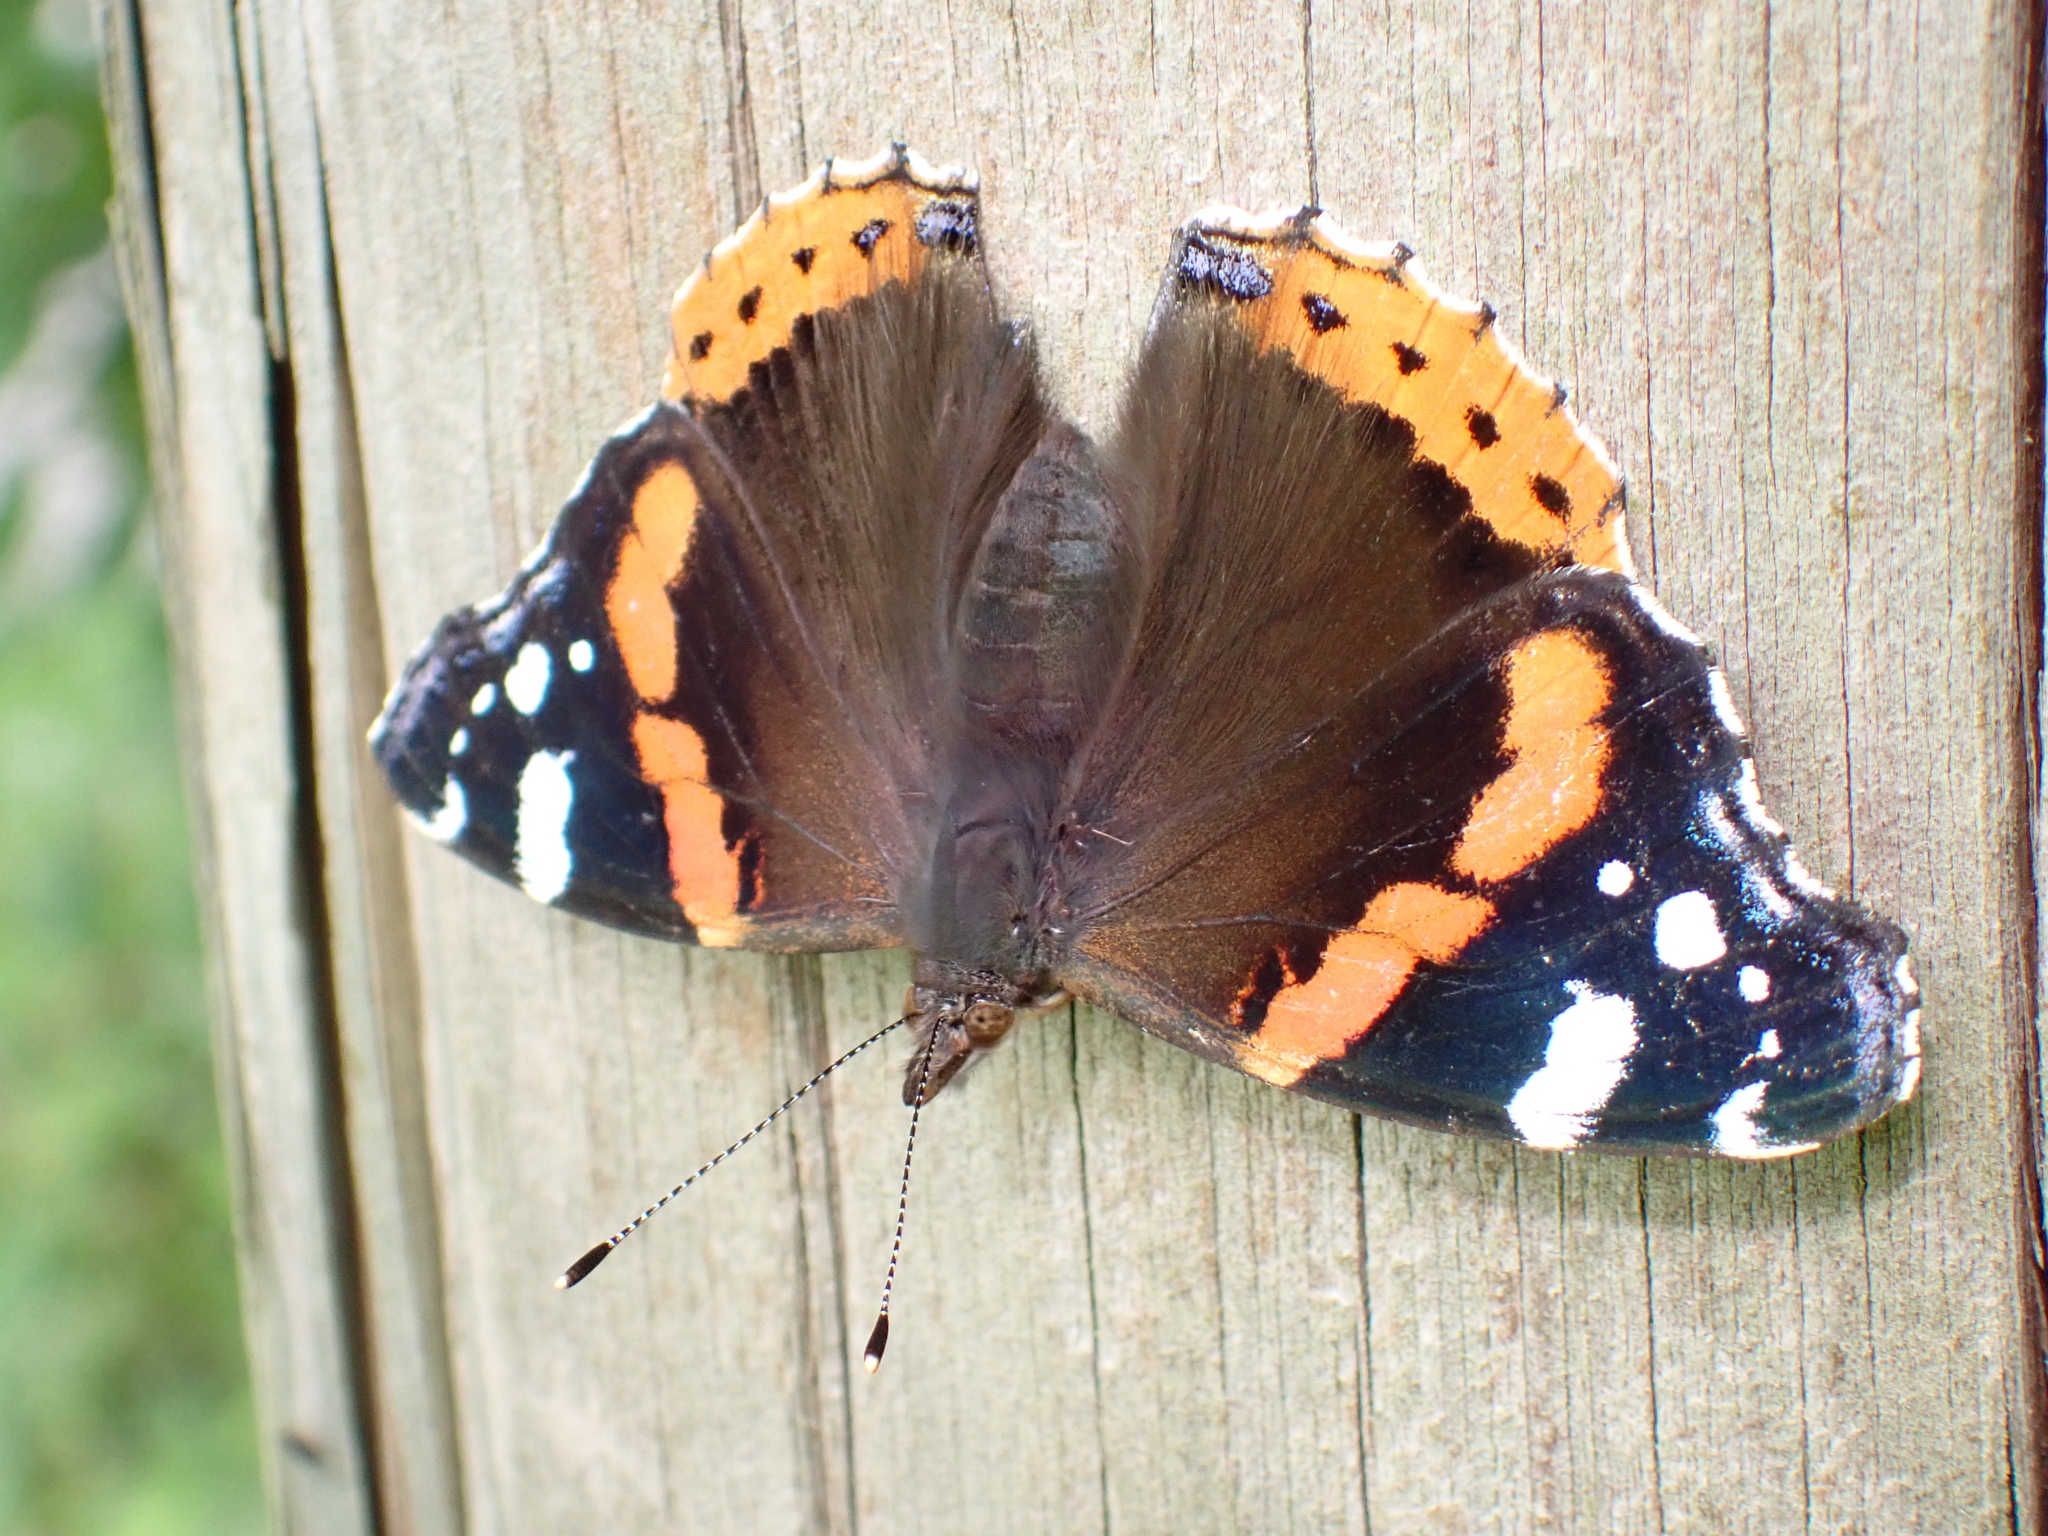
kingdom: Animalia
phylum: Arthropoda
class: Insecta
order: Lepidoptera
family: Nymphalidae
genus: Vanessa
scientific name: Vanessa atalanta
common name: Red admiral
